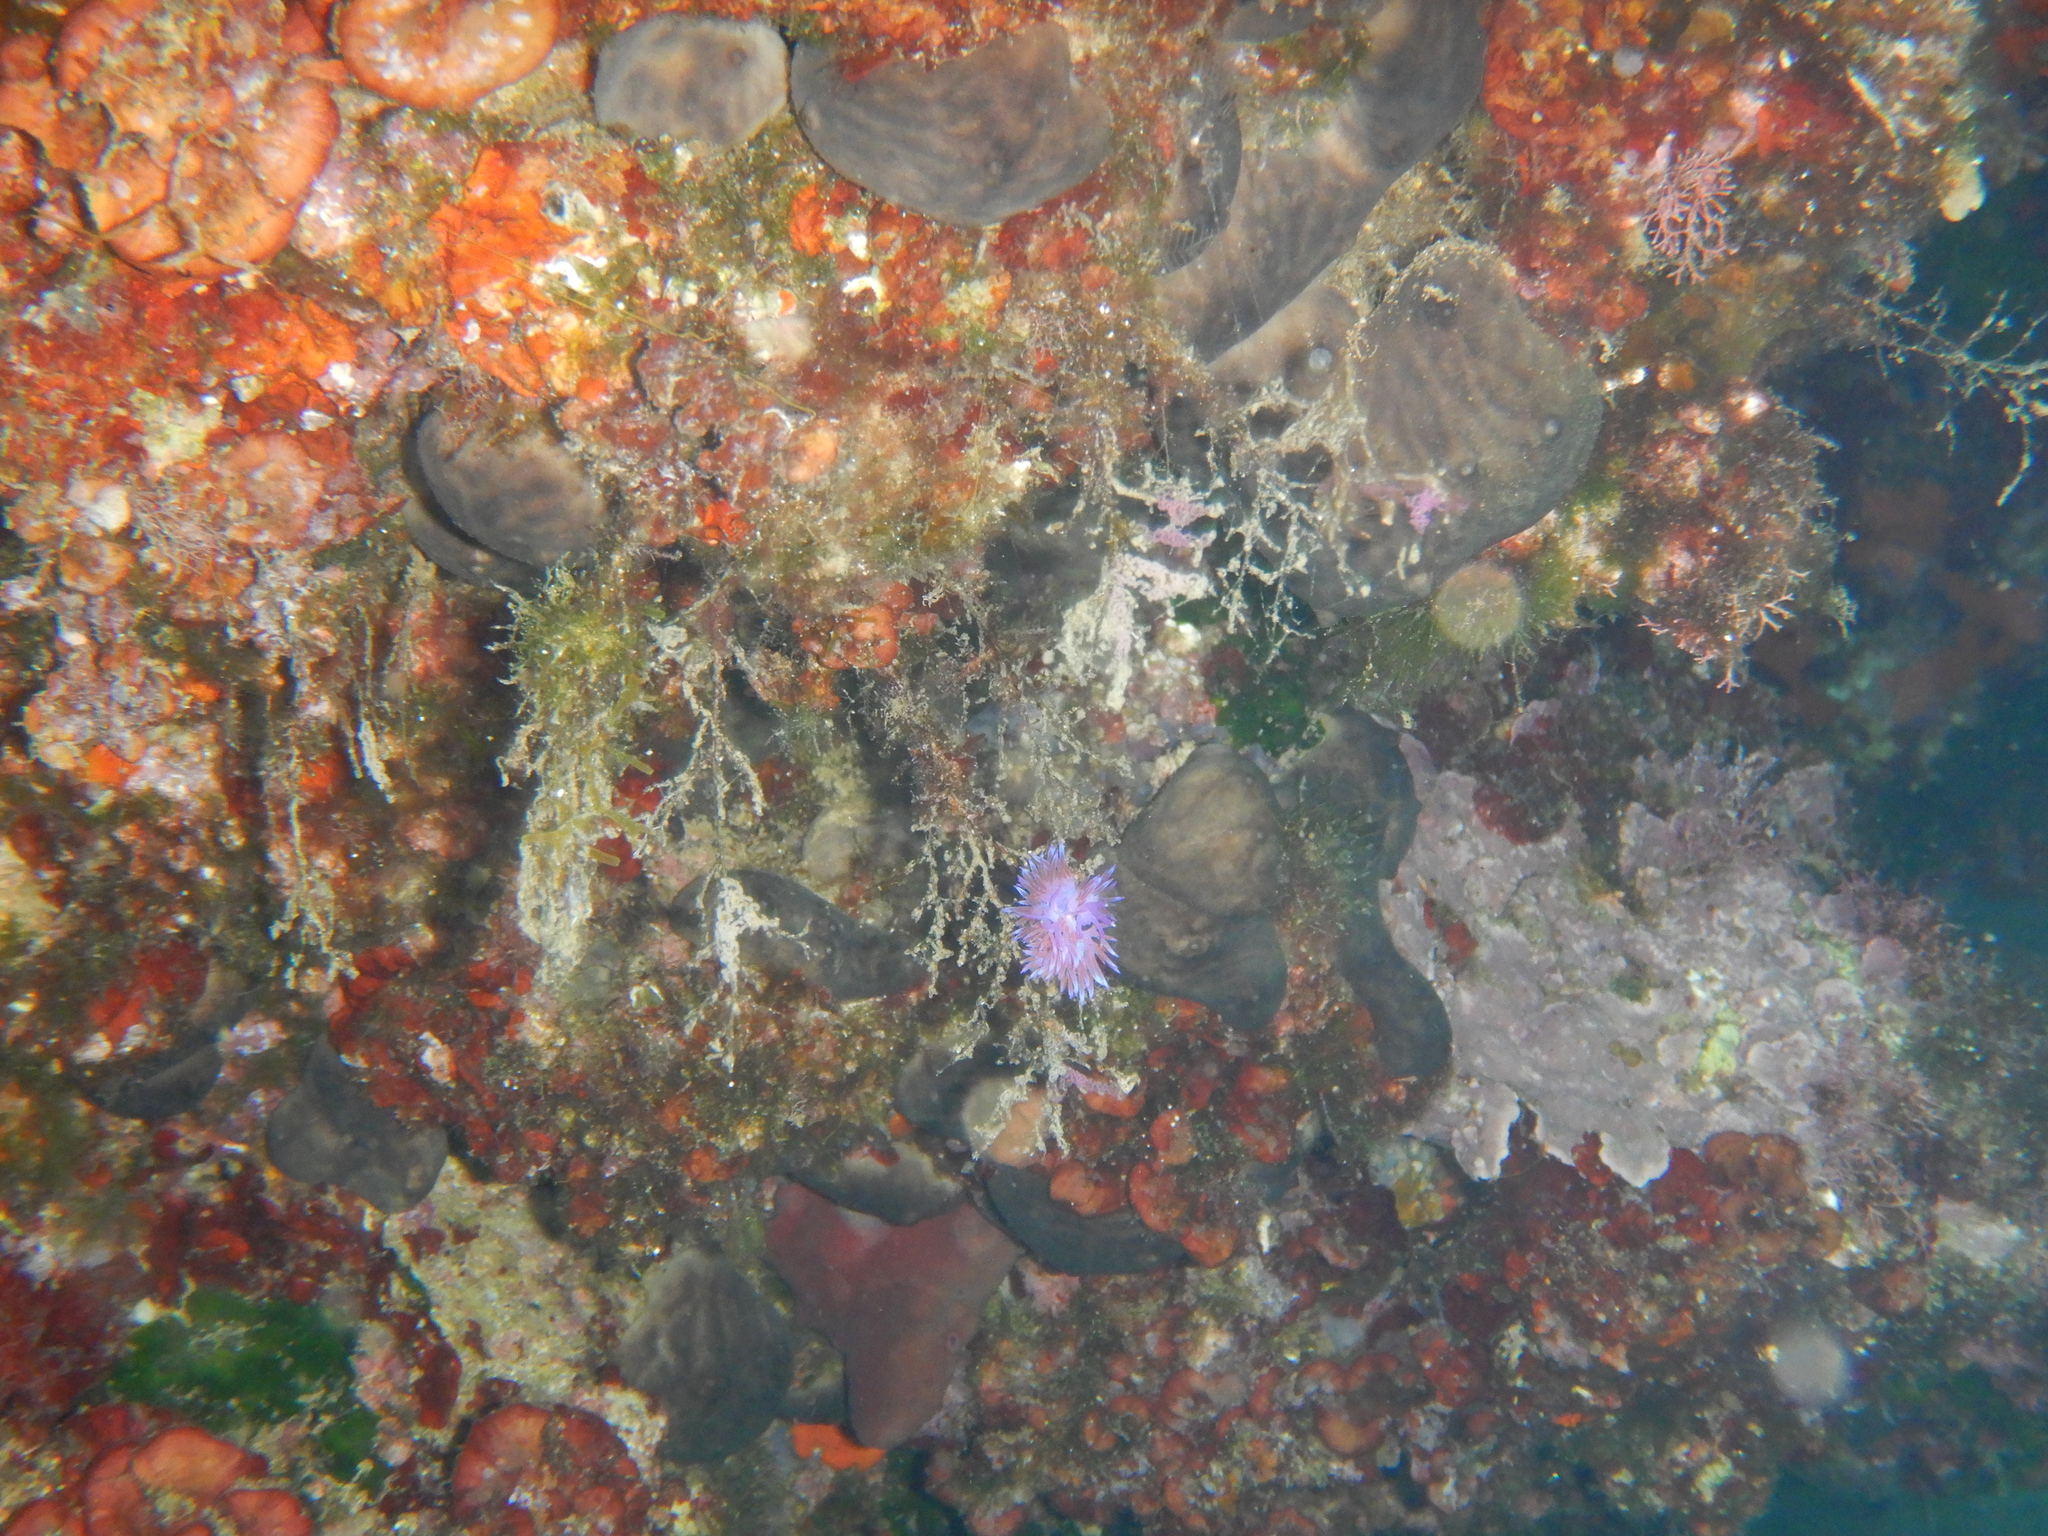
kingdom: Animalia
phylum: Mollusca
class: Gastropoda
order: Nudibranchia
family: Flabellinidae
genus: Flabellina
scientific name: Flabellina affinis
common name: Mediterranean violet aeolid
